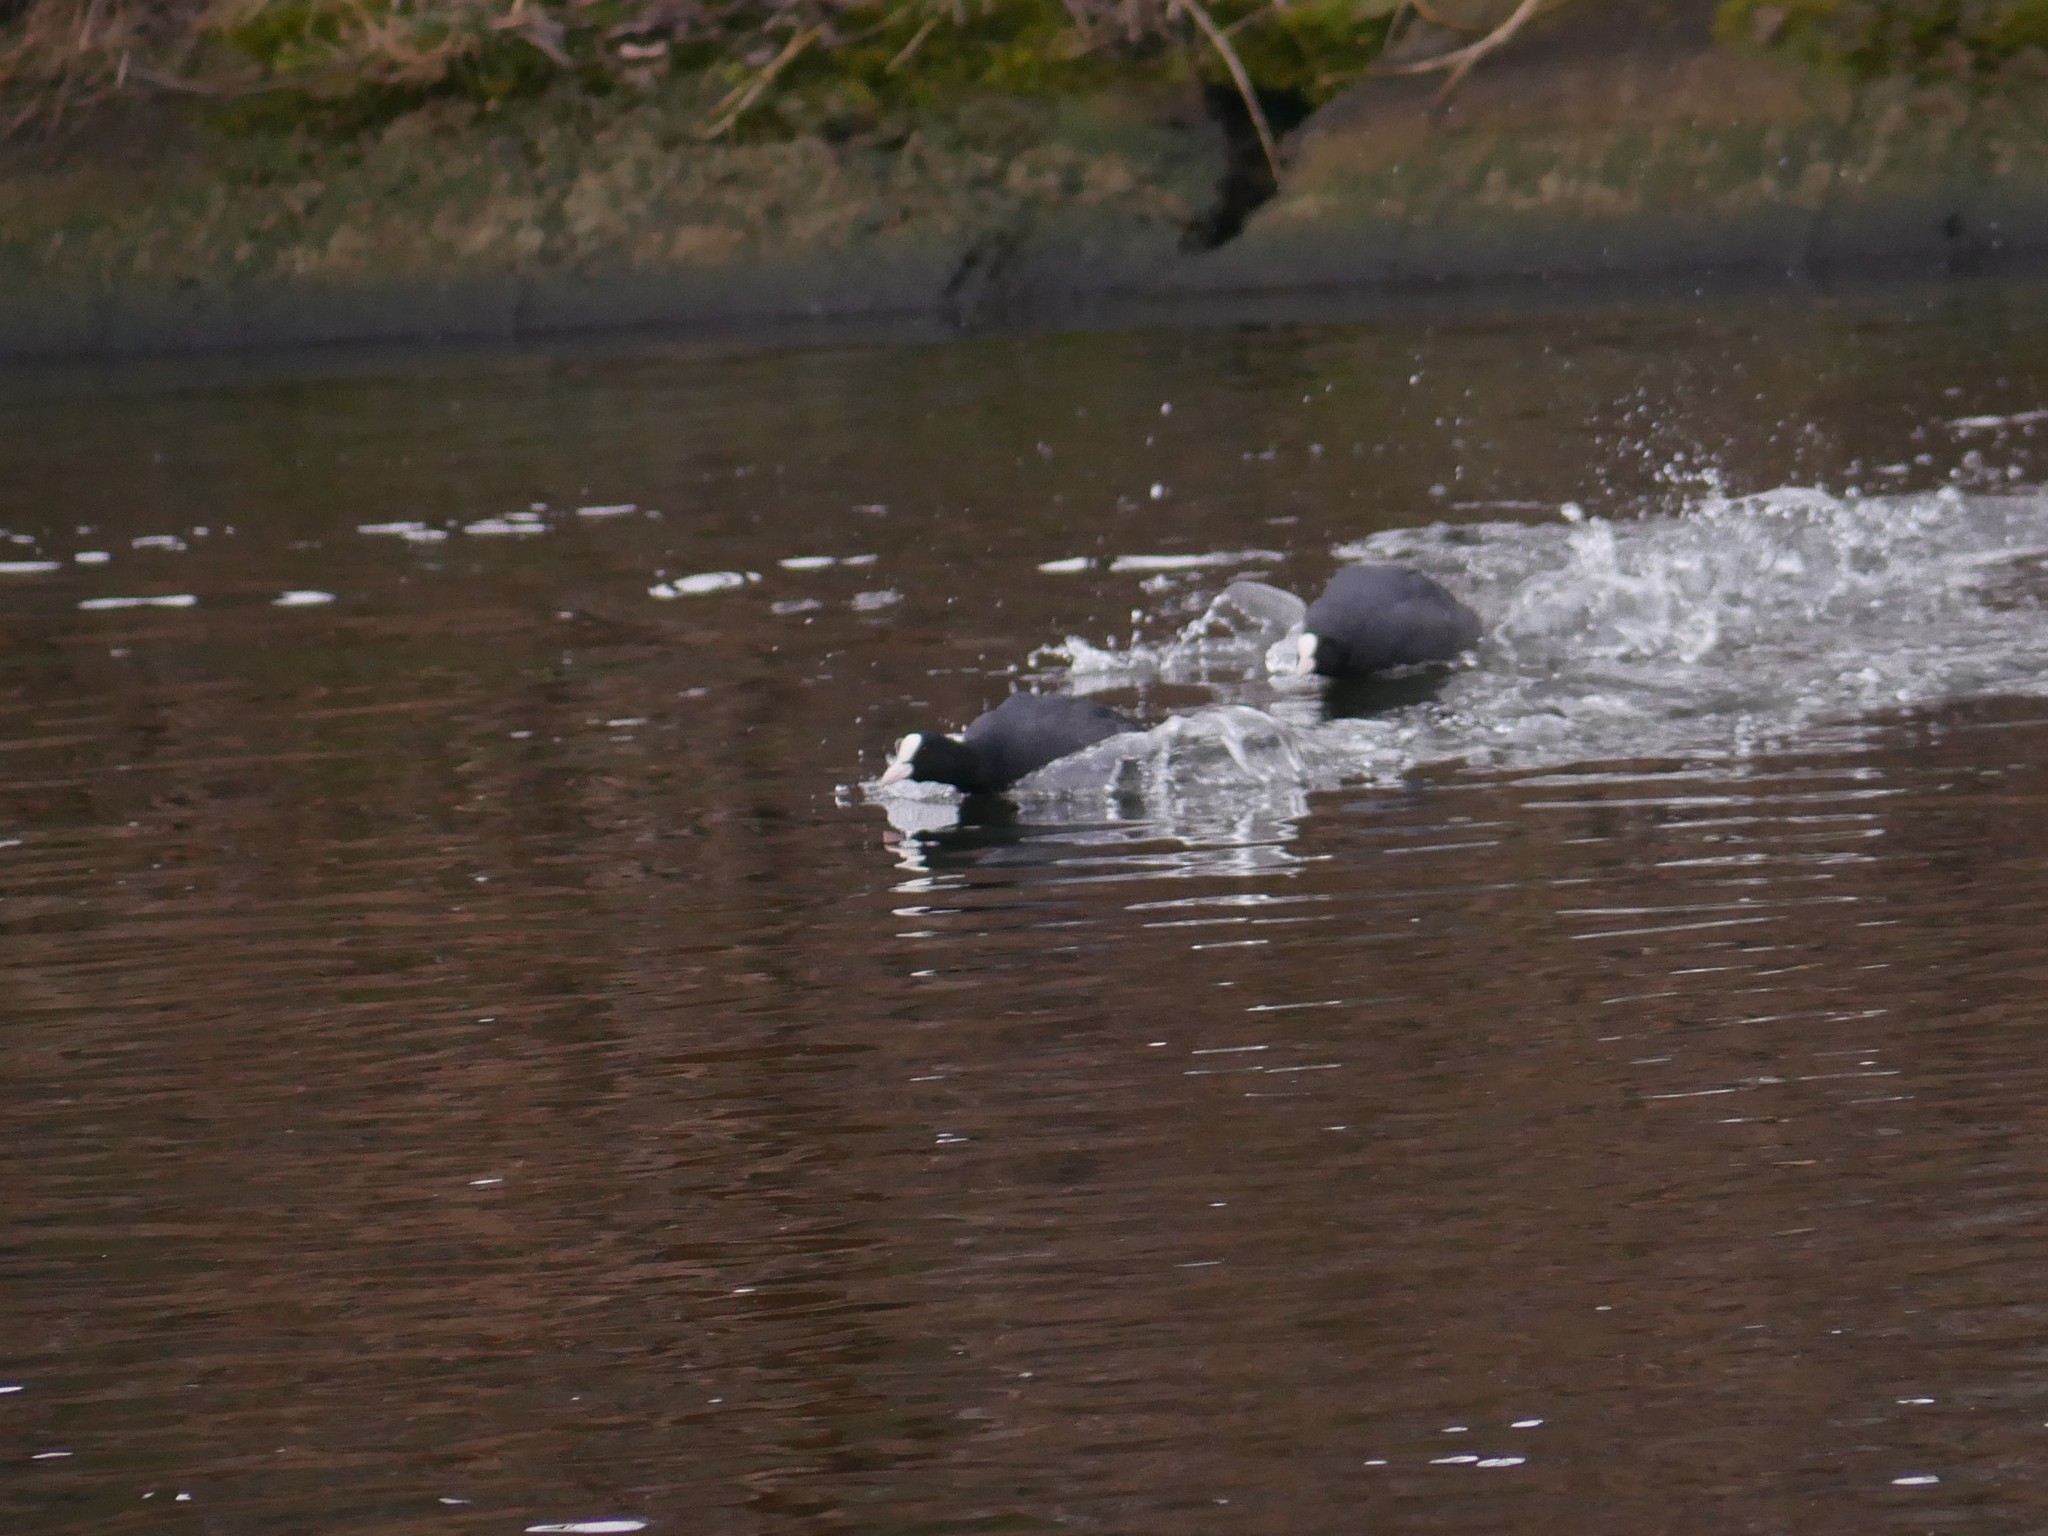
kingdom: Animalia
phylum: Chordata
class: Aves
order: Gruiformes
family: Rallidae
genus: Fulica
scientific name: Fulica atra
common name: Eurasian coot
